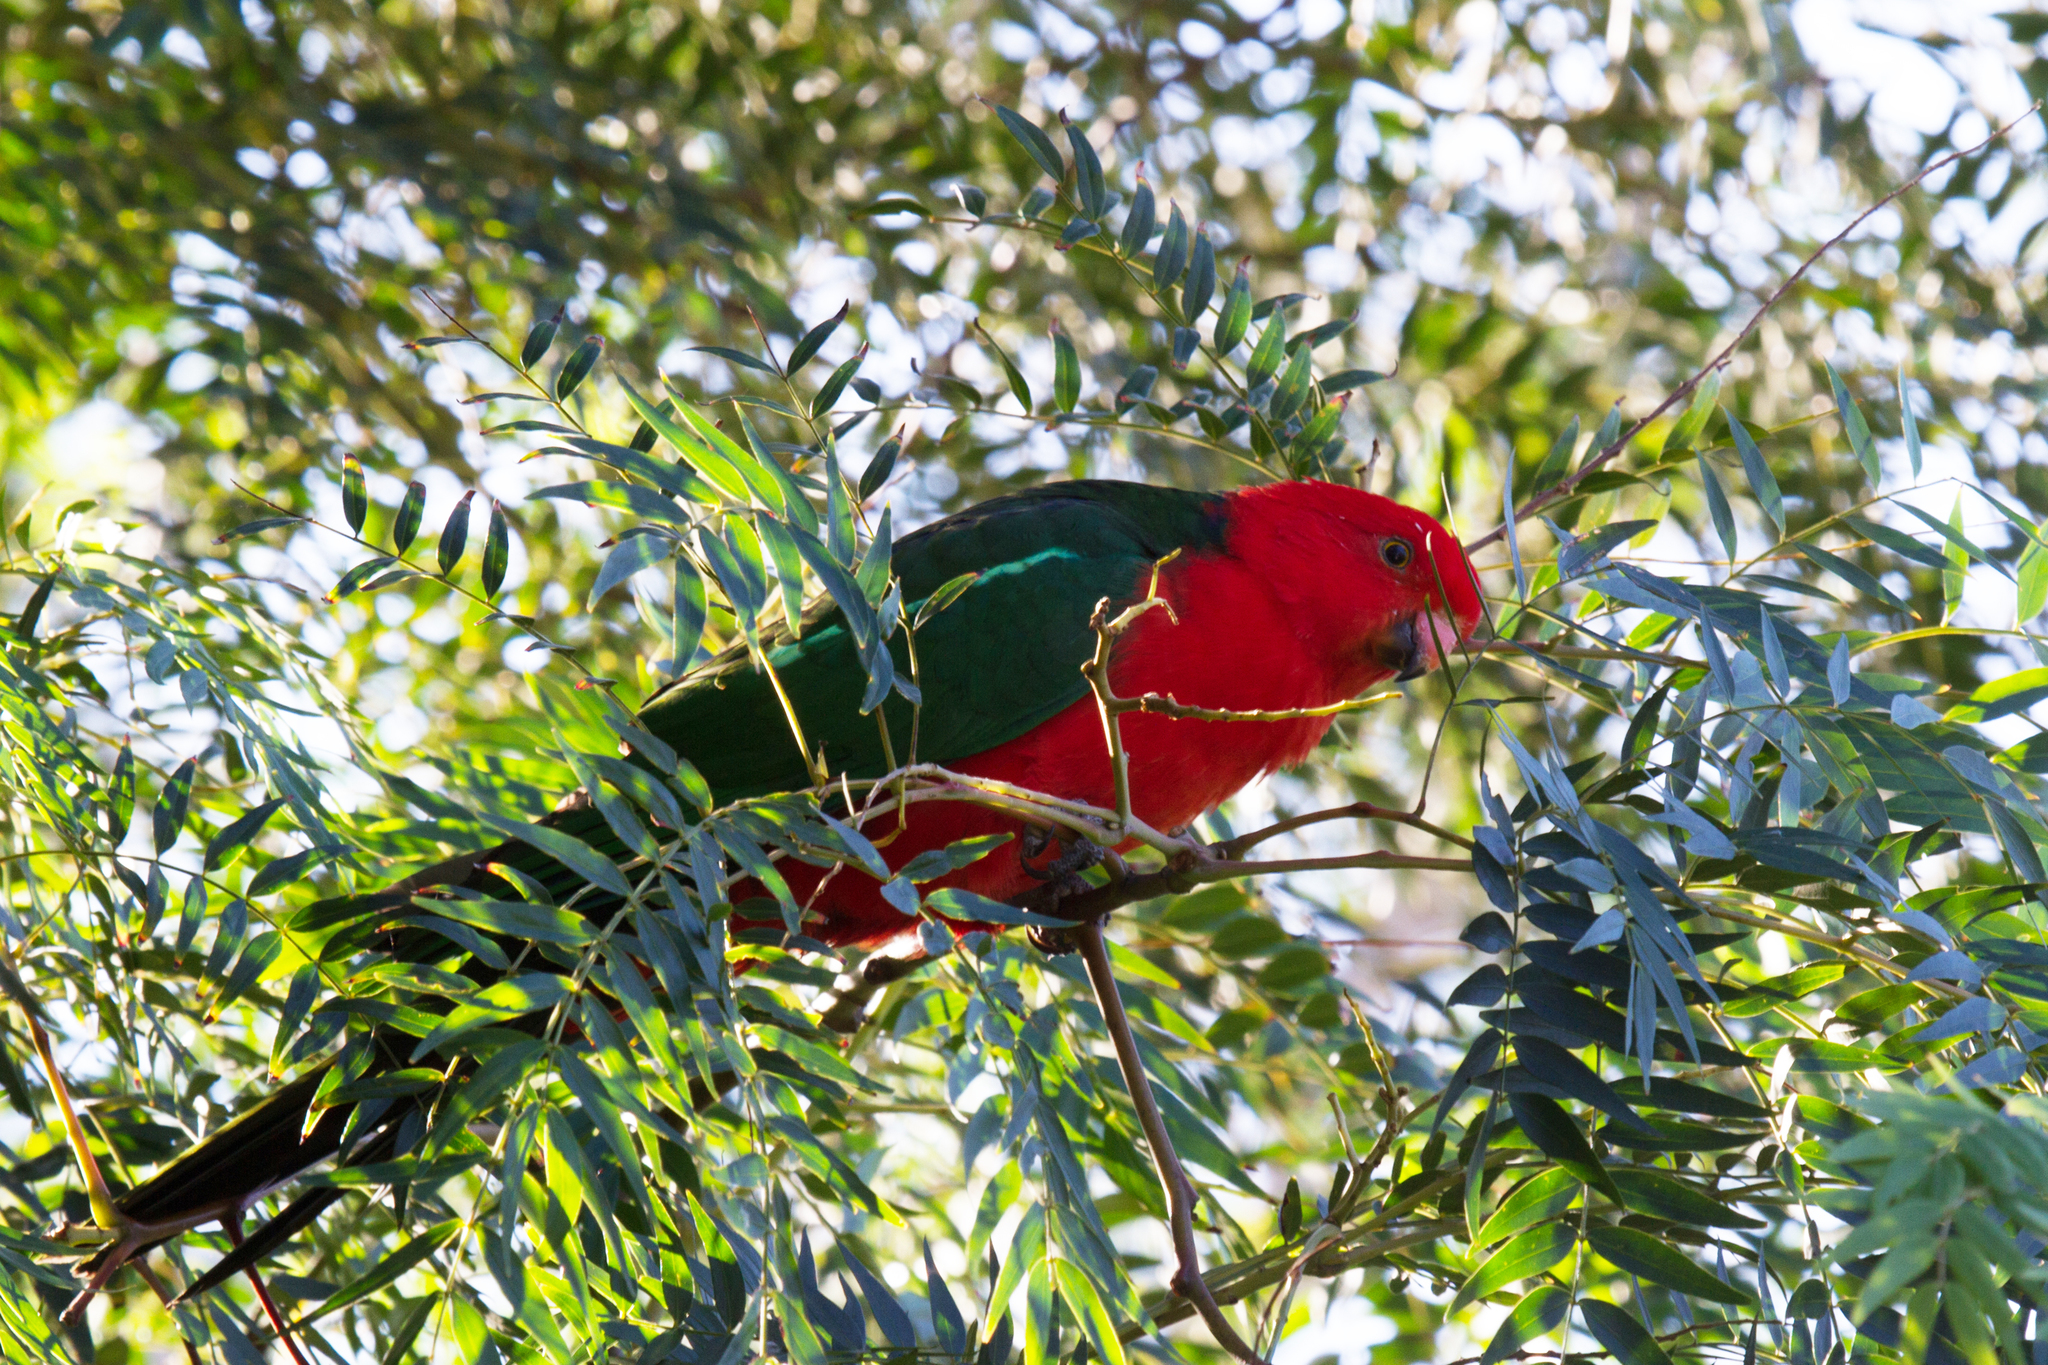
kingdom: Animalia
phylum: Chordata
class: Aves
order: Psittaciformes
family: Psittacidae
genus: Alisterus
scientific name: Alisterus scapularis
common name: Australian king parrot
